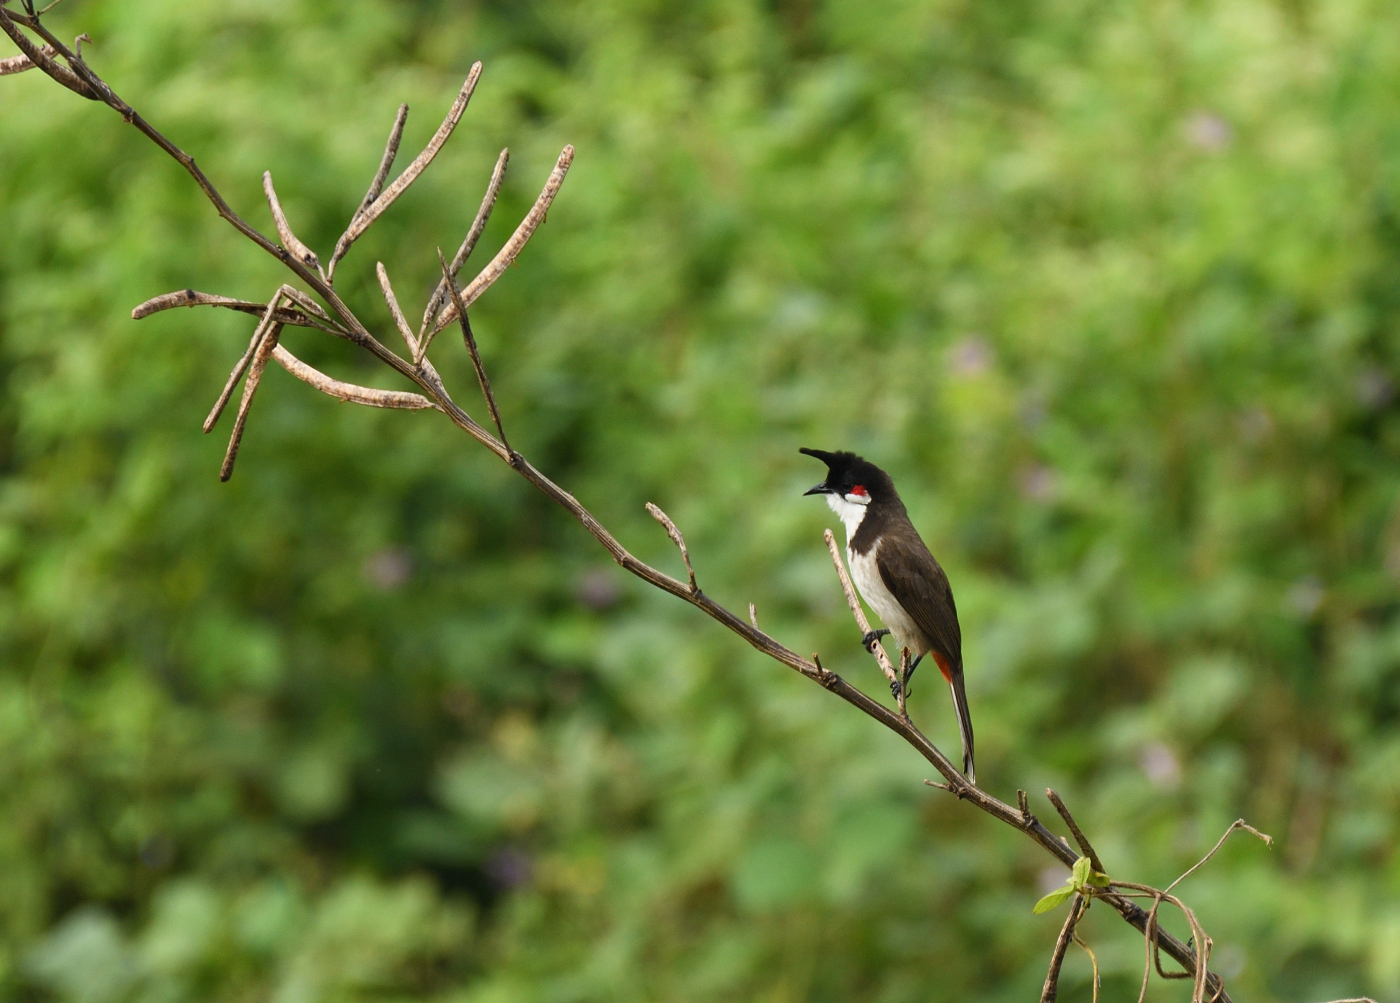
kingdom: Animalia
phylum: Chordata
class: Aves
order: Passeriformes
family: Pycnonotidae
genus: Pycnonotus
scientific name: Pycnonotus jocosus
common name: Red-whiskered bulbul
